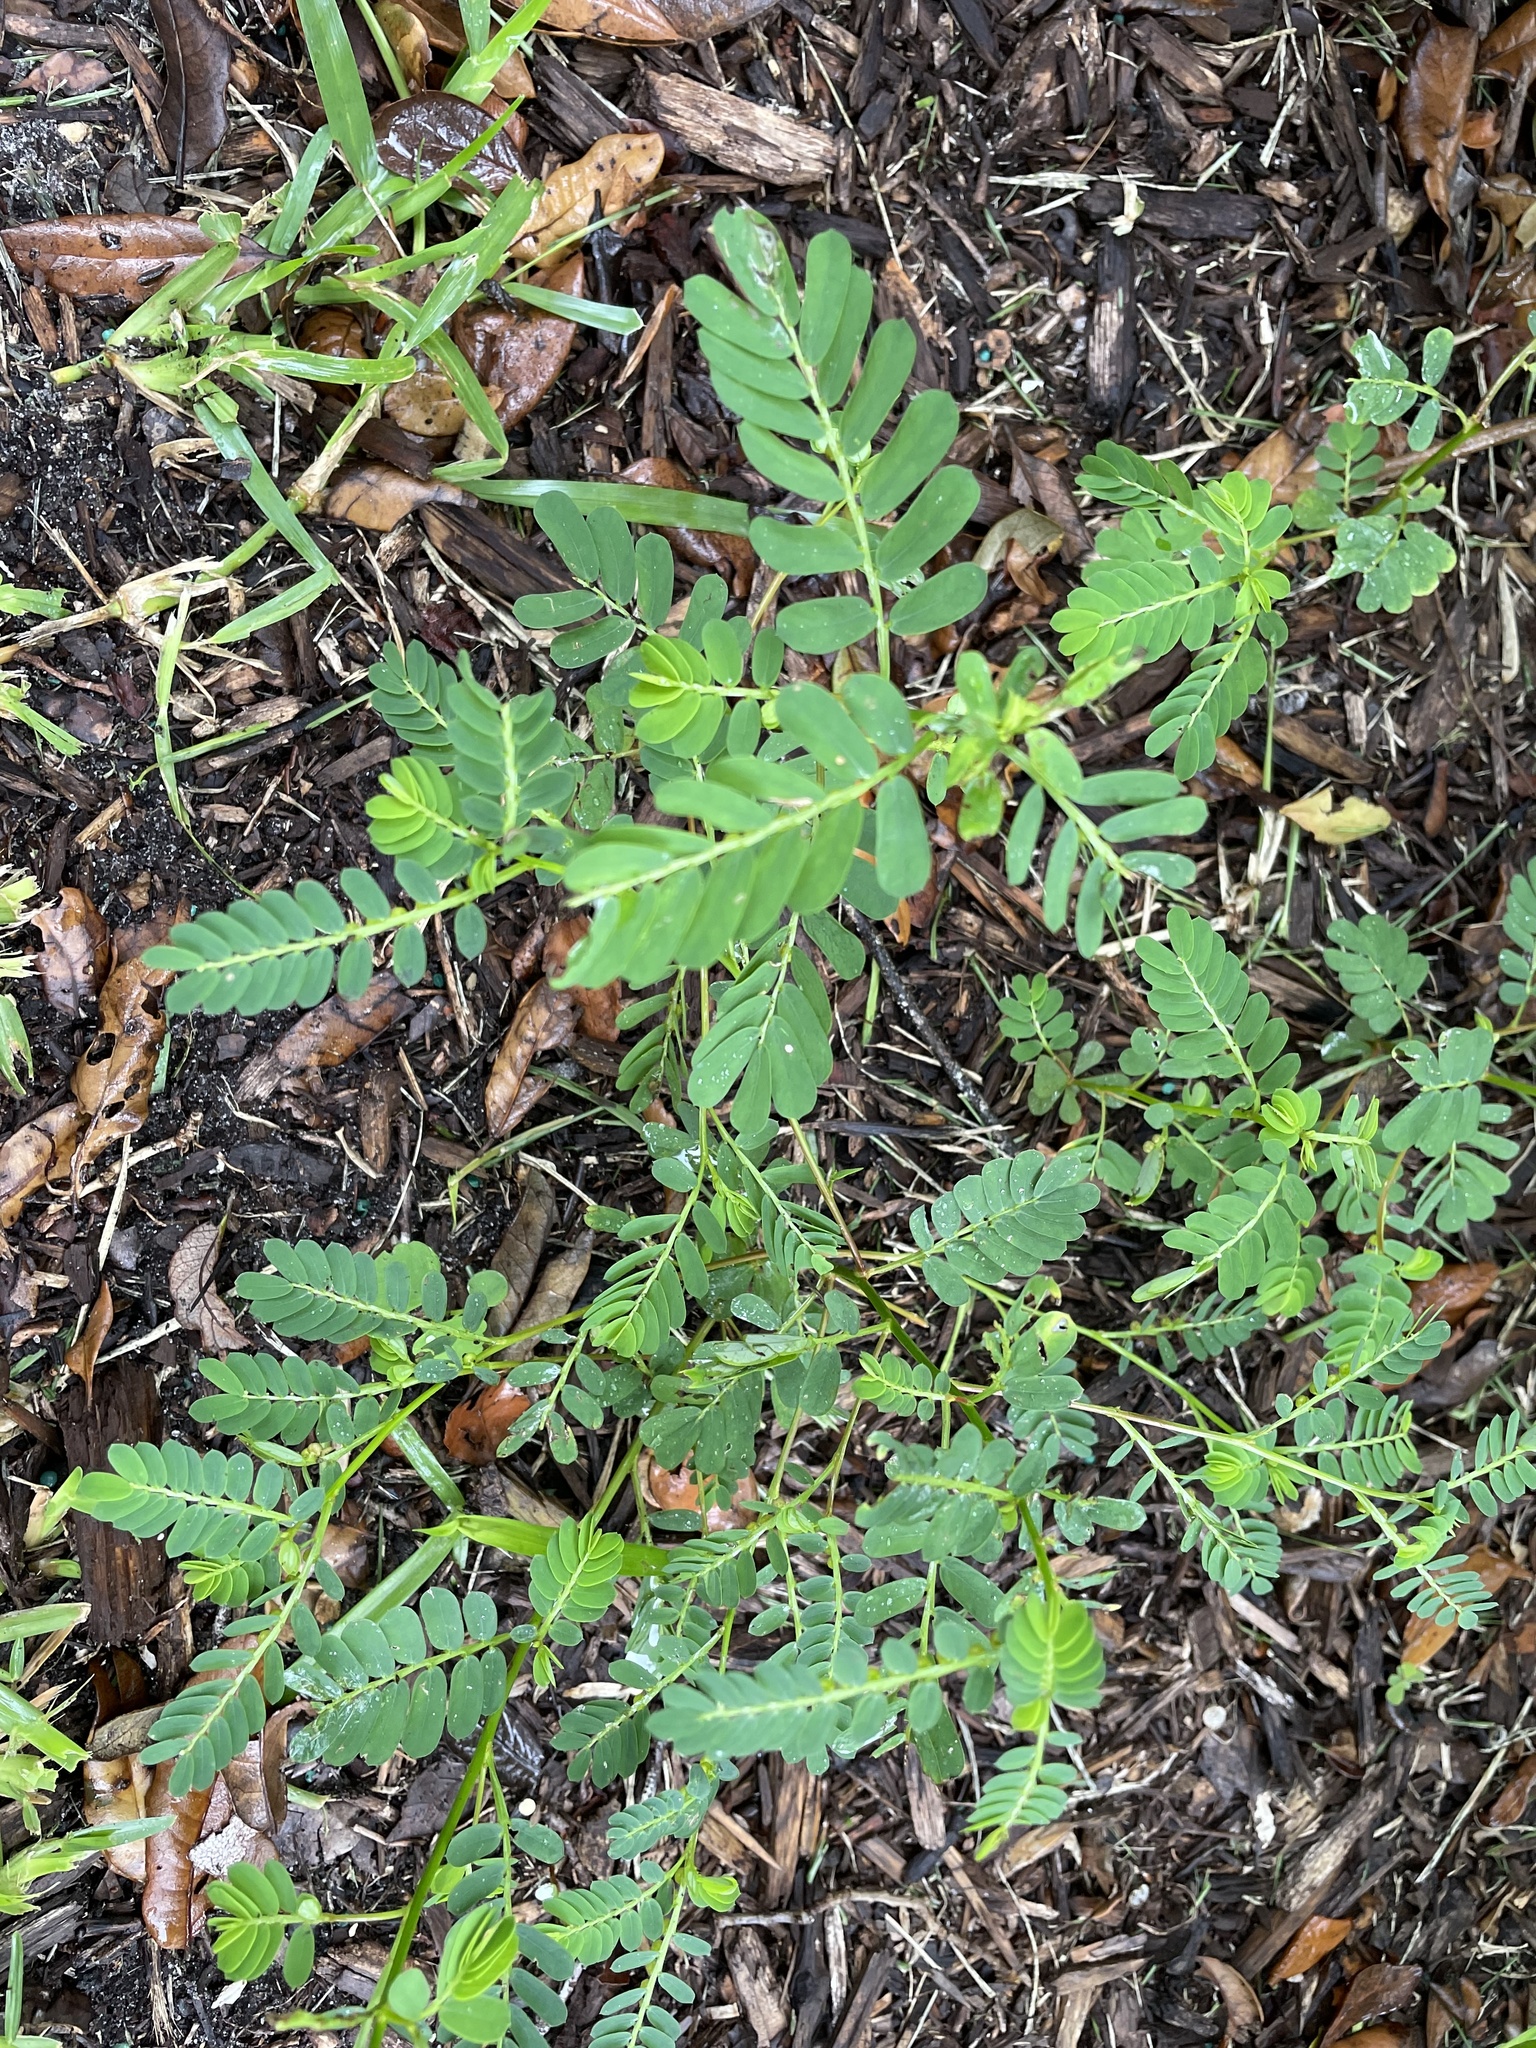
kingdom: Plantae
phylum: Tracheophyta
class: Magnoliopsida
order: Malpighiales
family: Phyllanthaceae
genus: Phyllanthus
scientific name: Phyllanthus urinaria
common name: Chamber bitter
